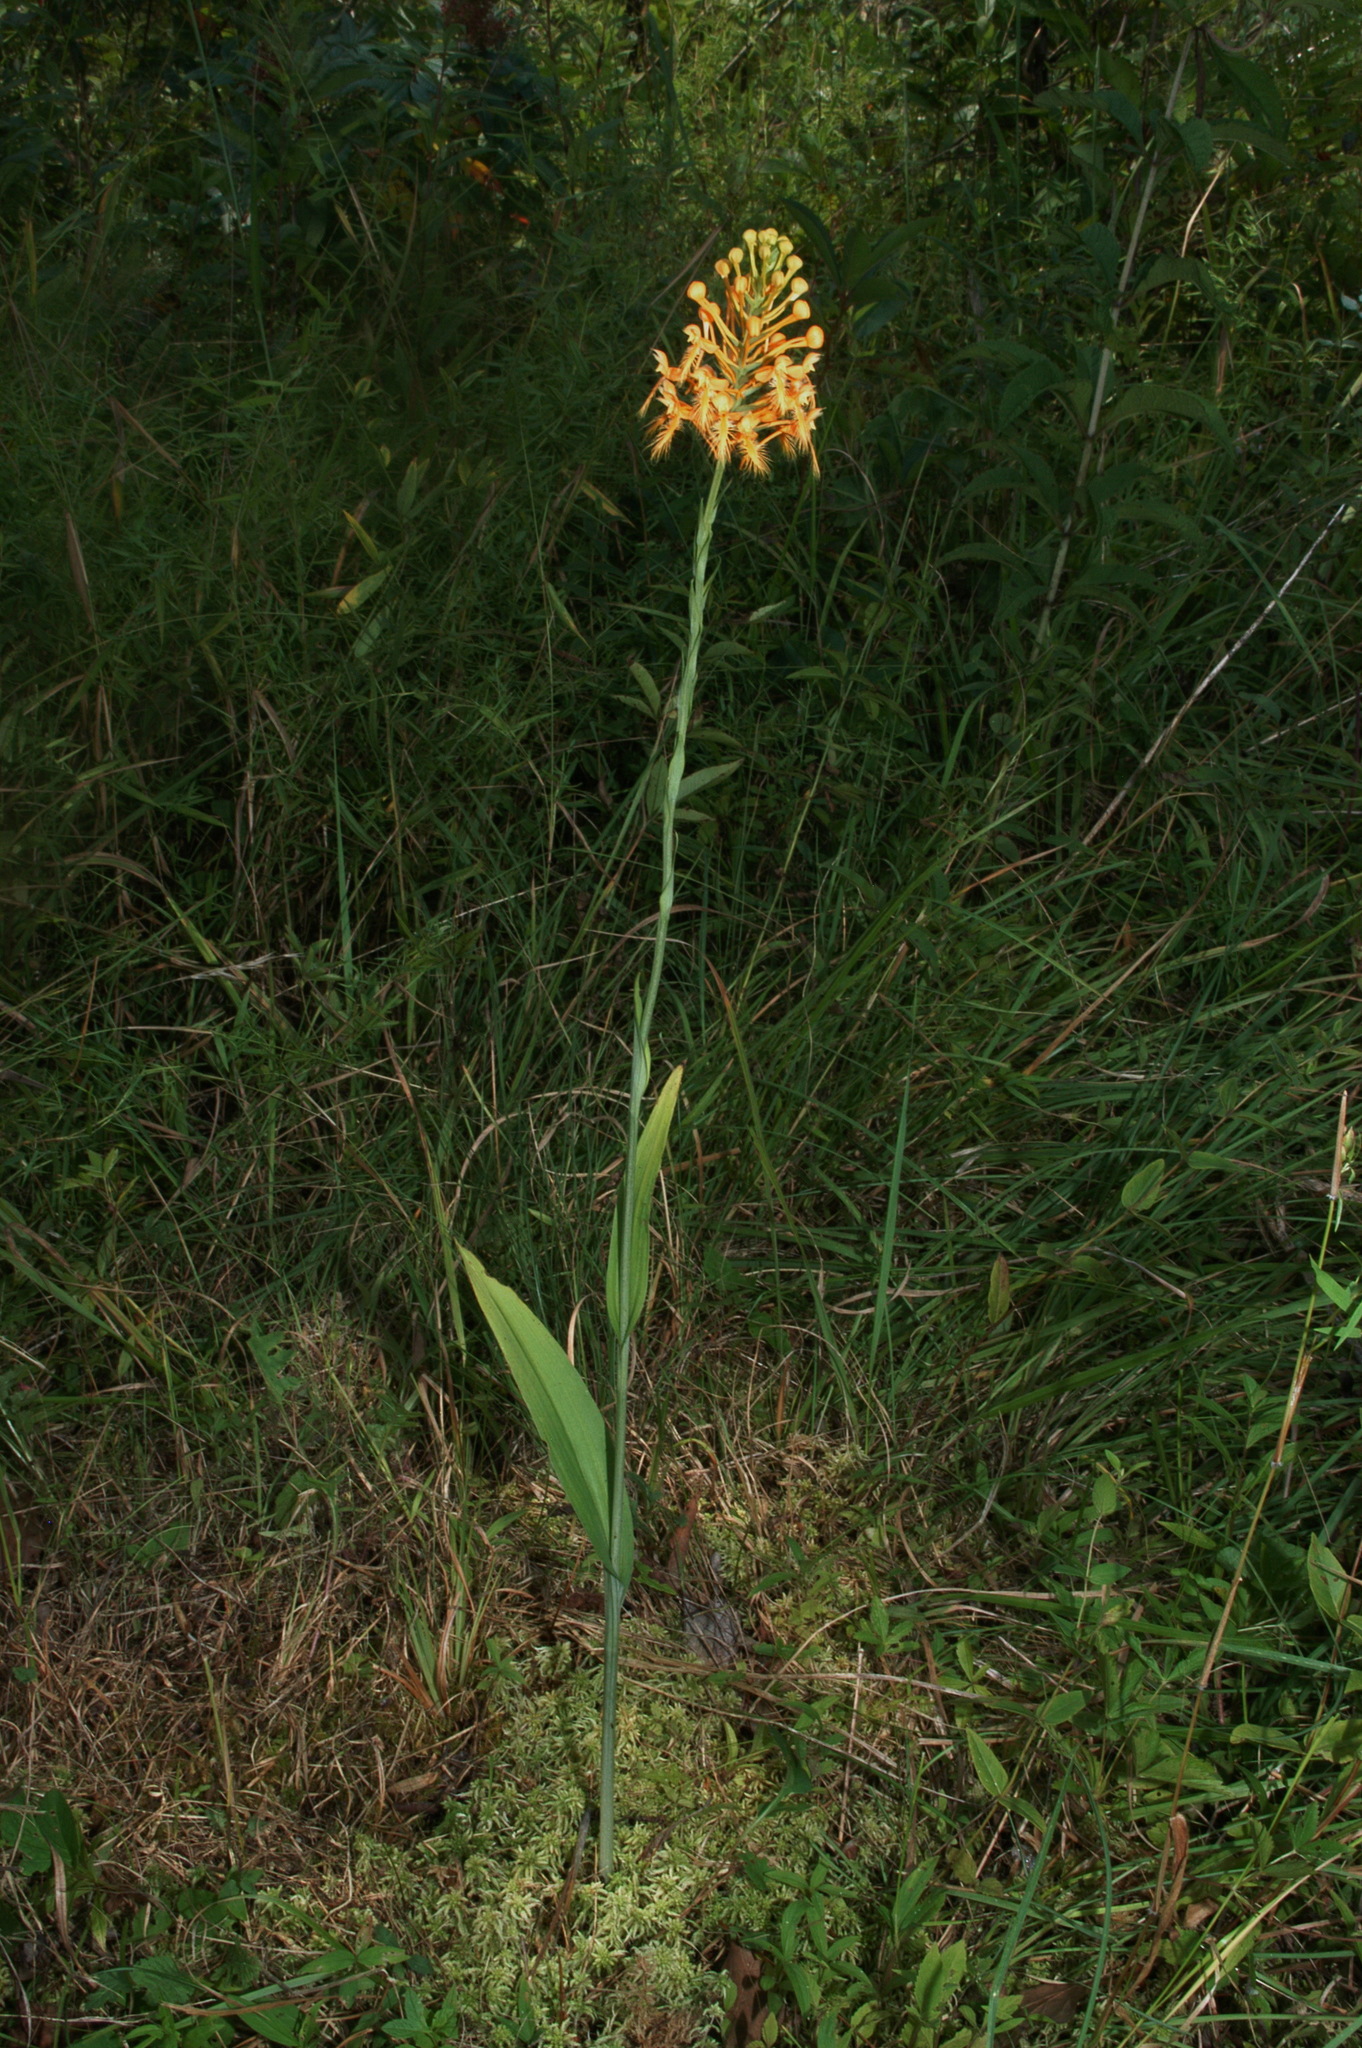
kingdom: Plantae
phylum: Tracheophyta
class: Liliopsida
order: Asparagales
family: Orchidaceae
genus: Platanthera
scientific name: Platanthera ciliaris
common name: Yellow fringed orchid
